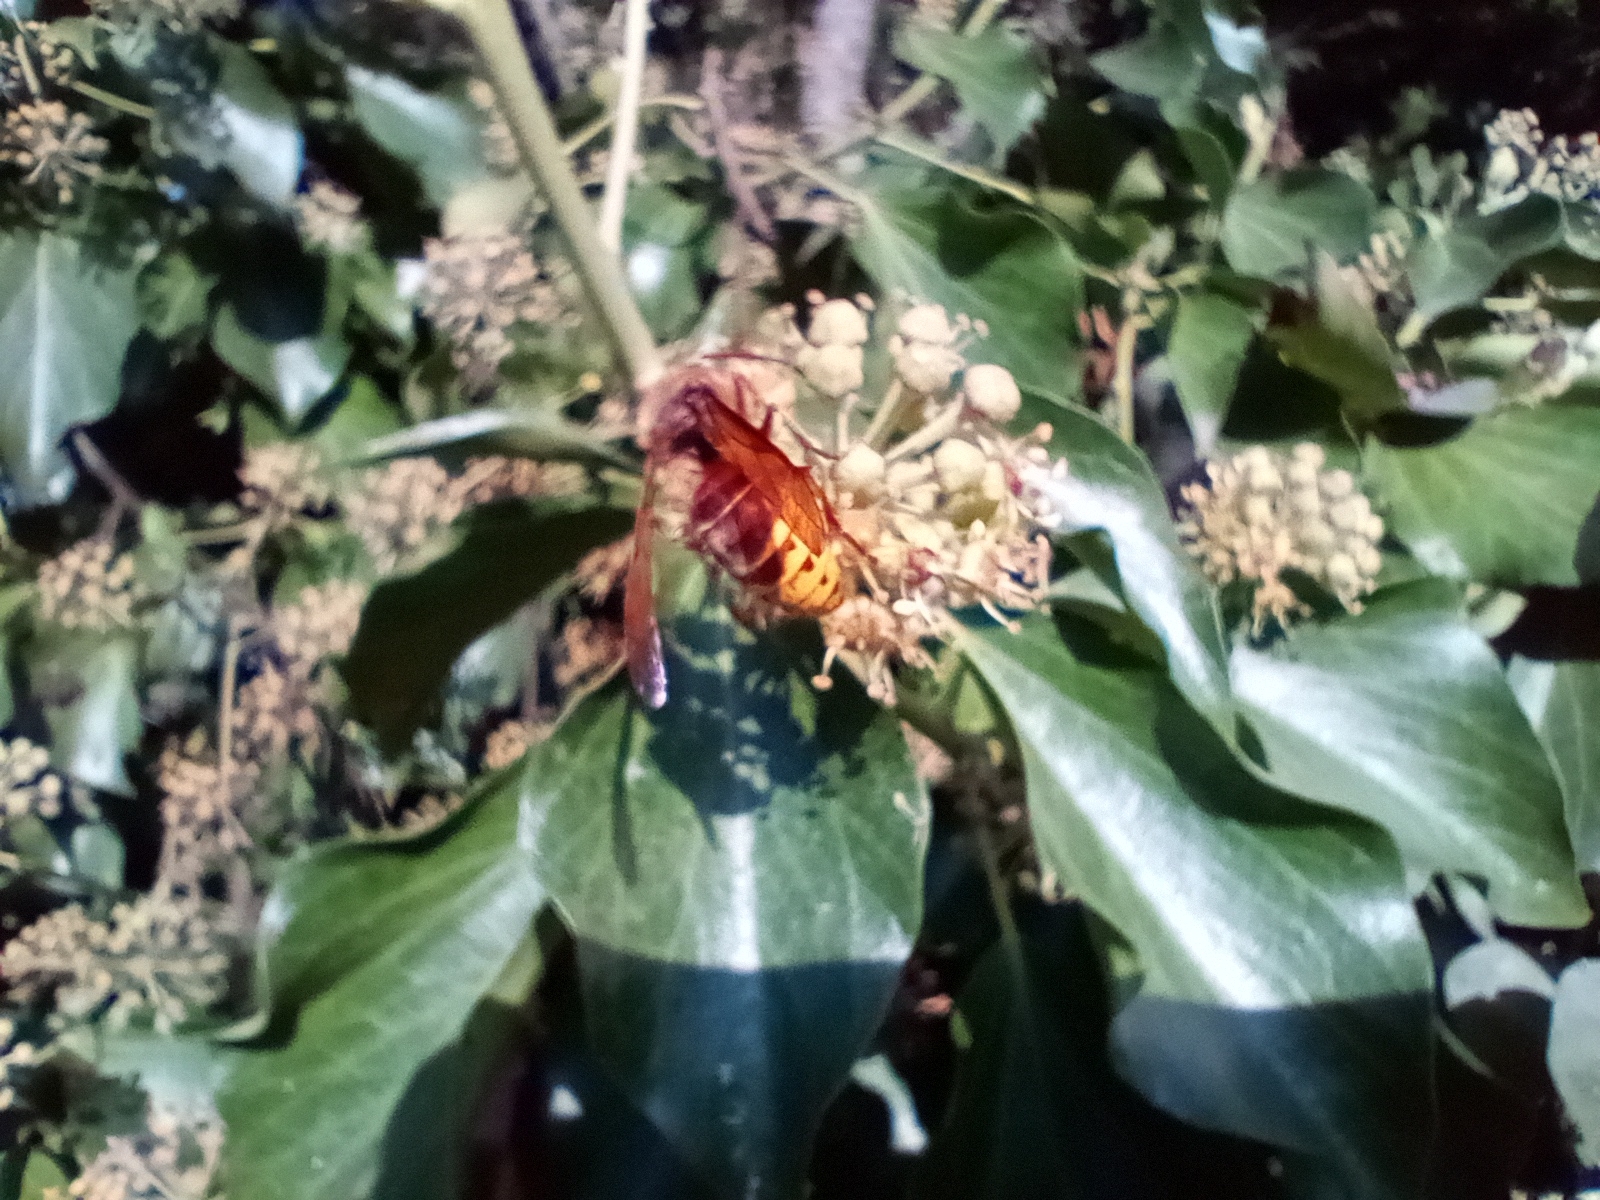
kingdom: Animalia
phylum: Arthropoda
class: Insecta
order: Hymenoptera
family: Vespidae
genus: Vespa
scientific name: Vespa crabro
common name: Hornet
